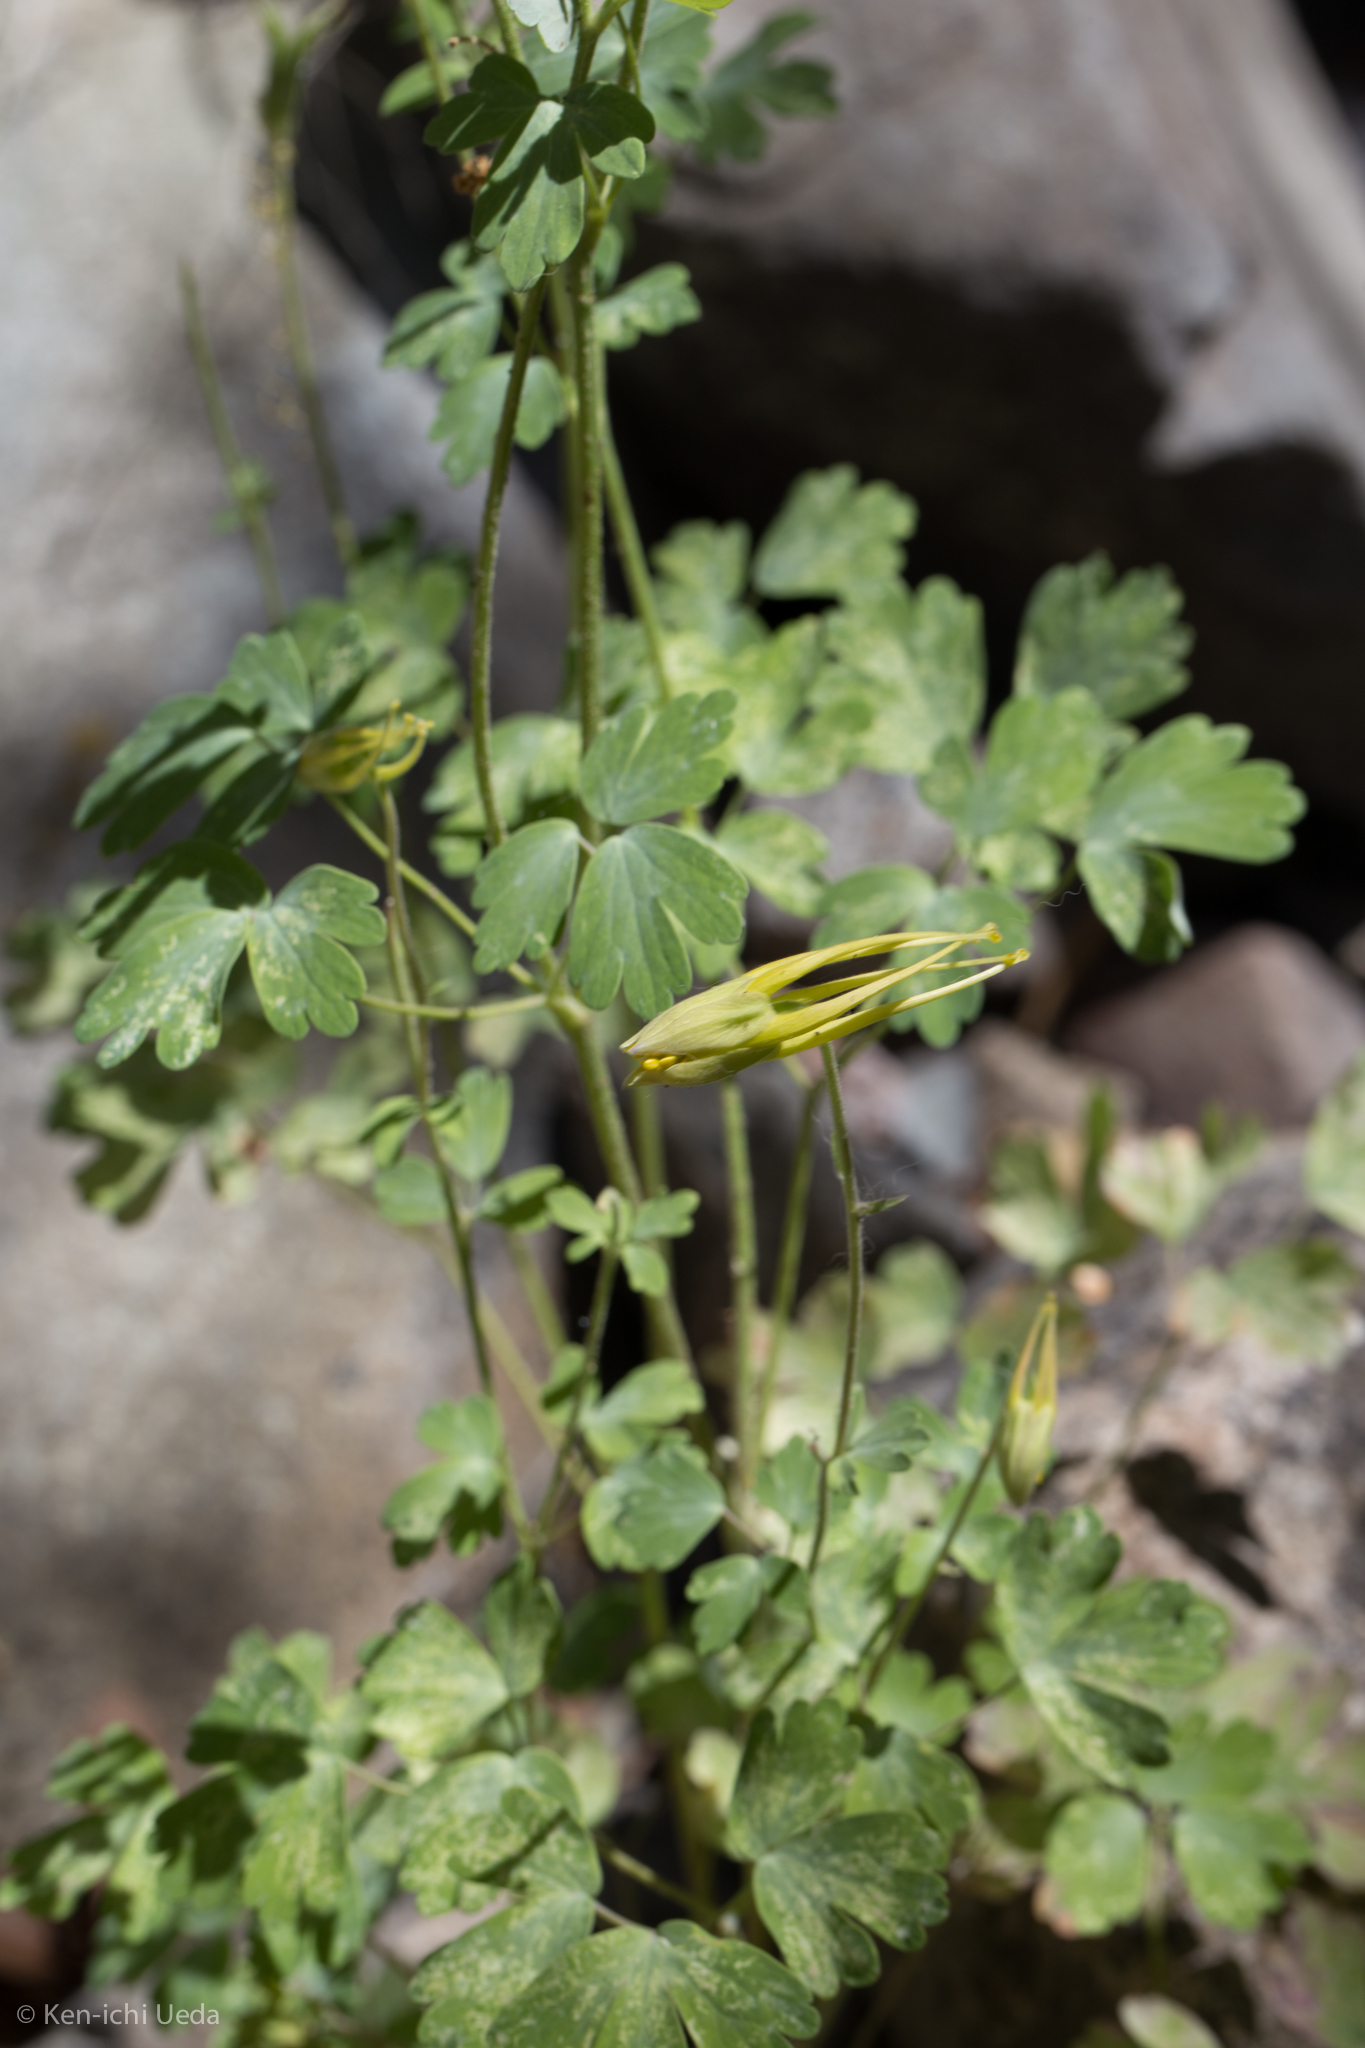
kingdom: Plantae
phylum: Tracheophyta
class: Magnoliopsida
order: Ranunculales
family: Ranunculaceae
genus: Aquilegia
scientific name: Aquilegia chrysantha
